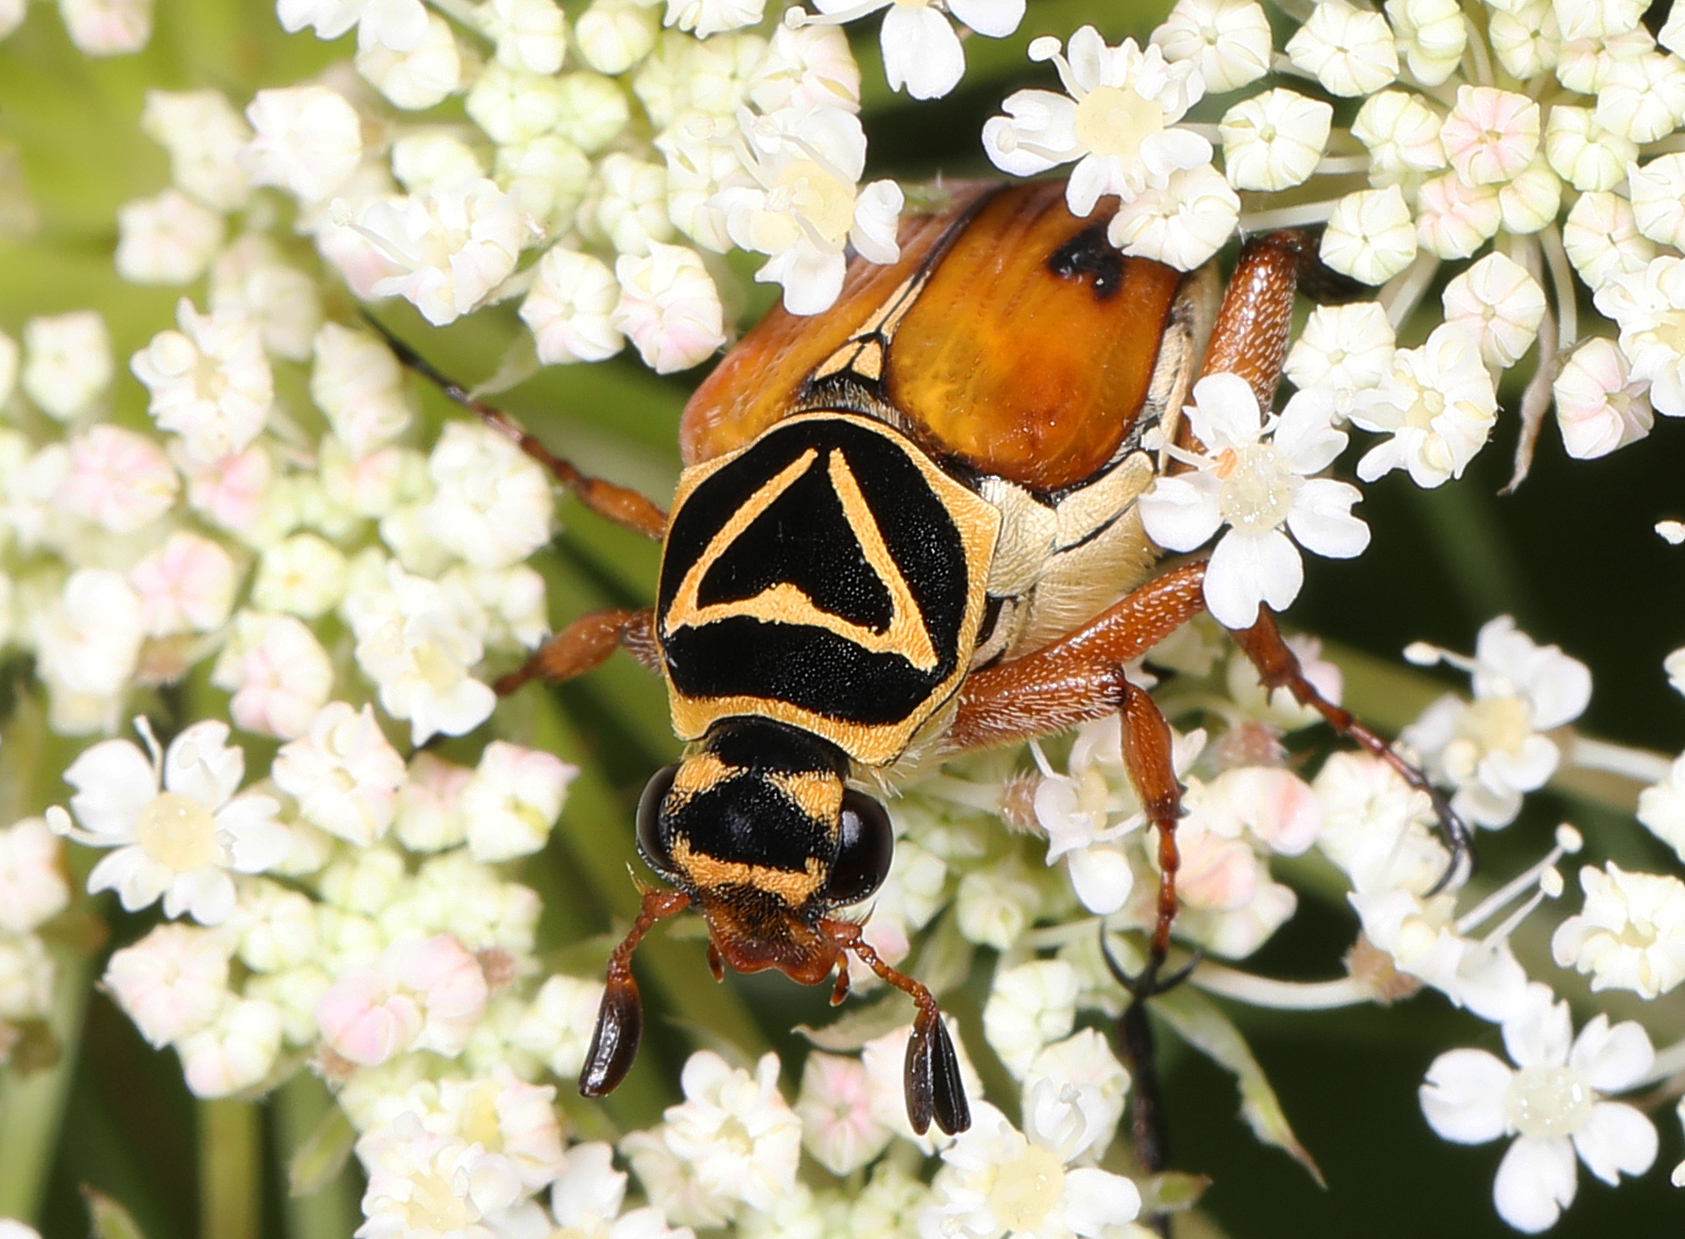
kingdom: Animalia
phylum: Arthropoda
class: Insecta
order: Coleoptera
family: Scarabaeidae
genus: Trigonopeltastes
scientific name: Trigonopeltastes delta
